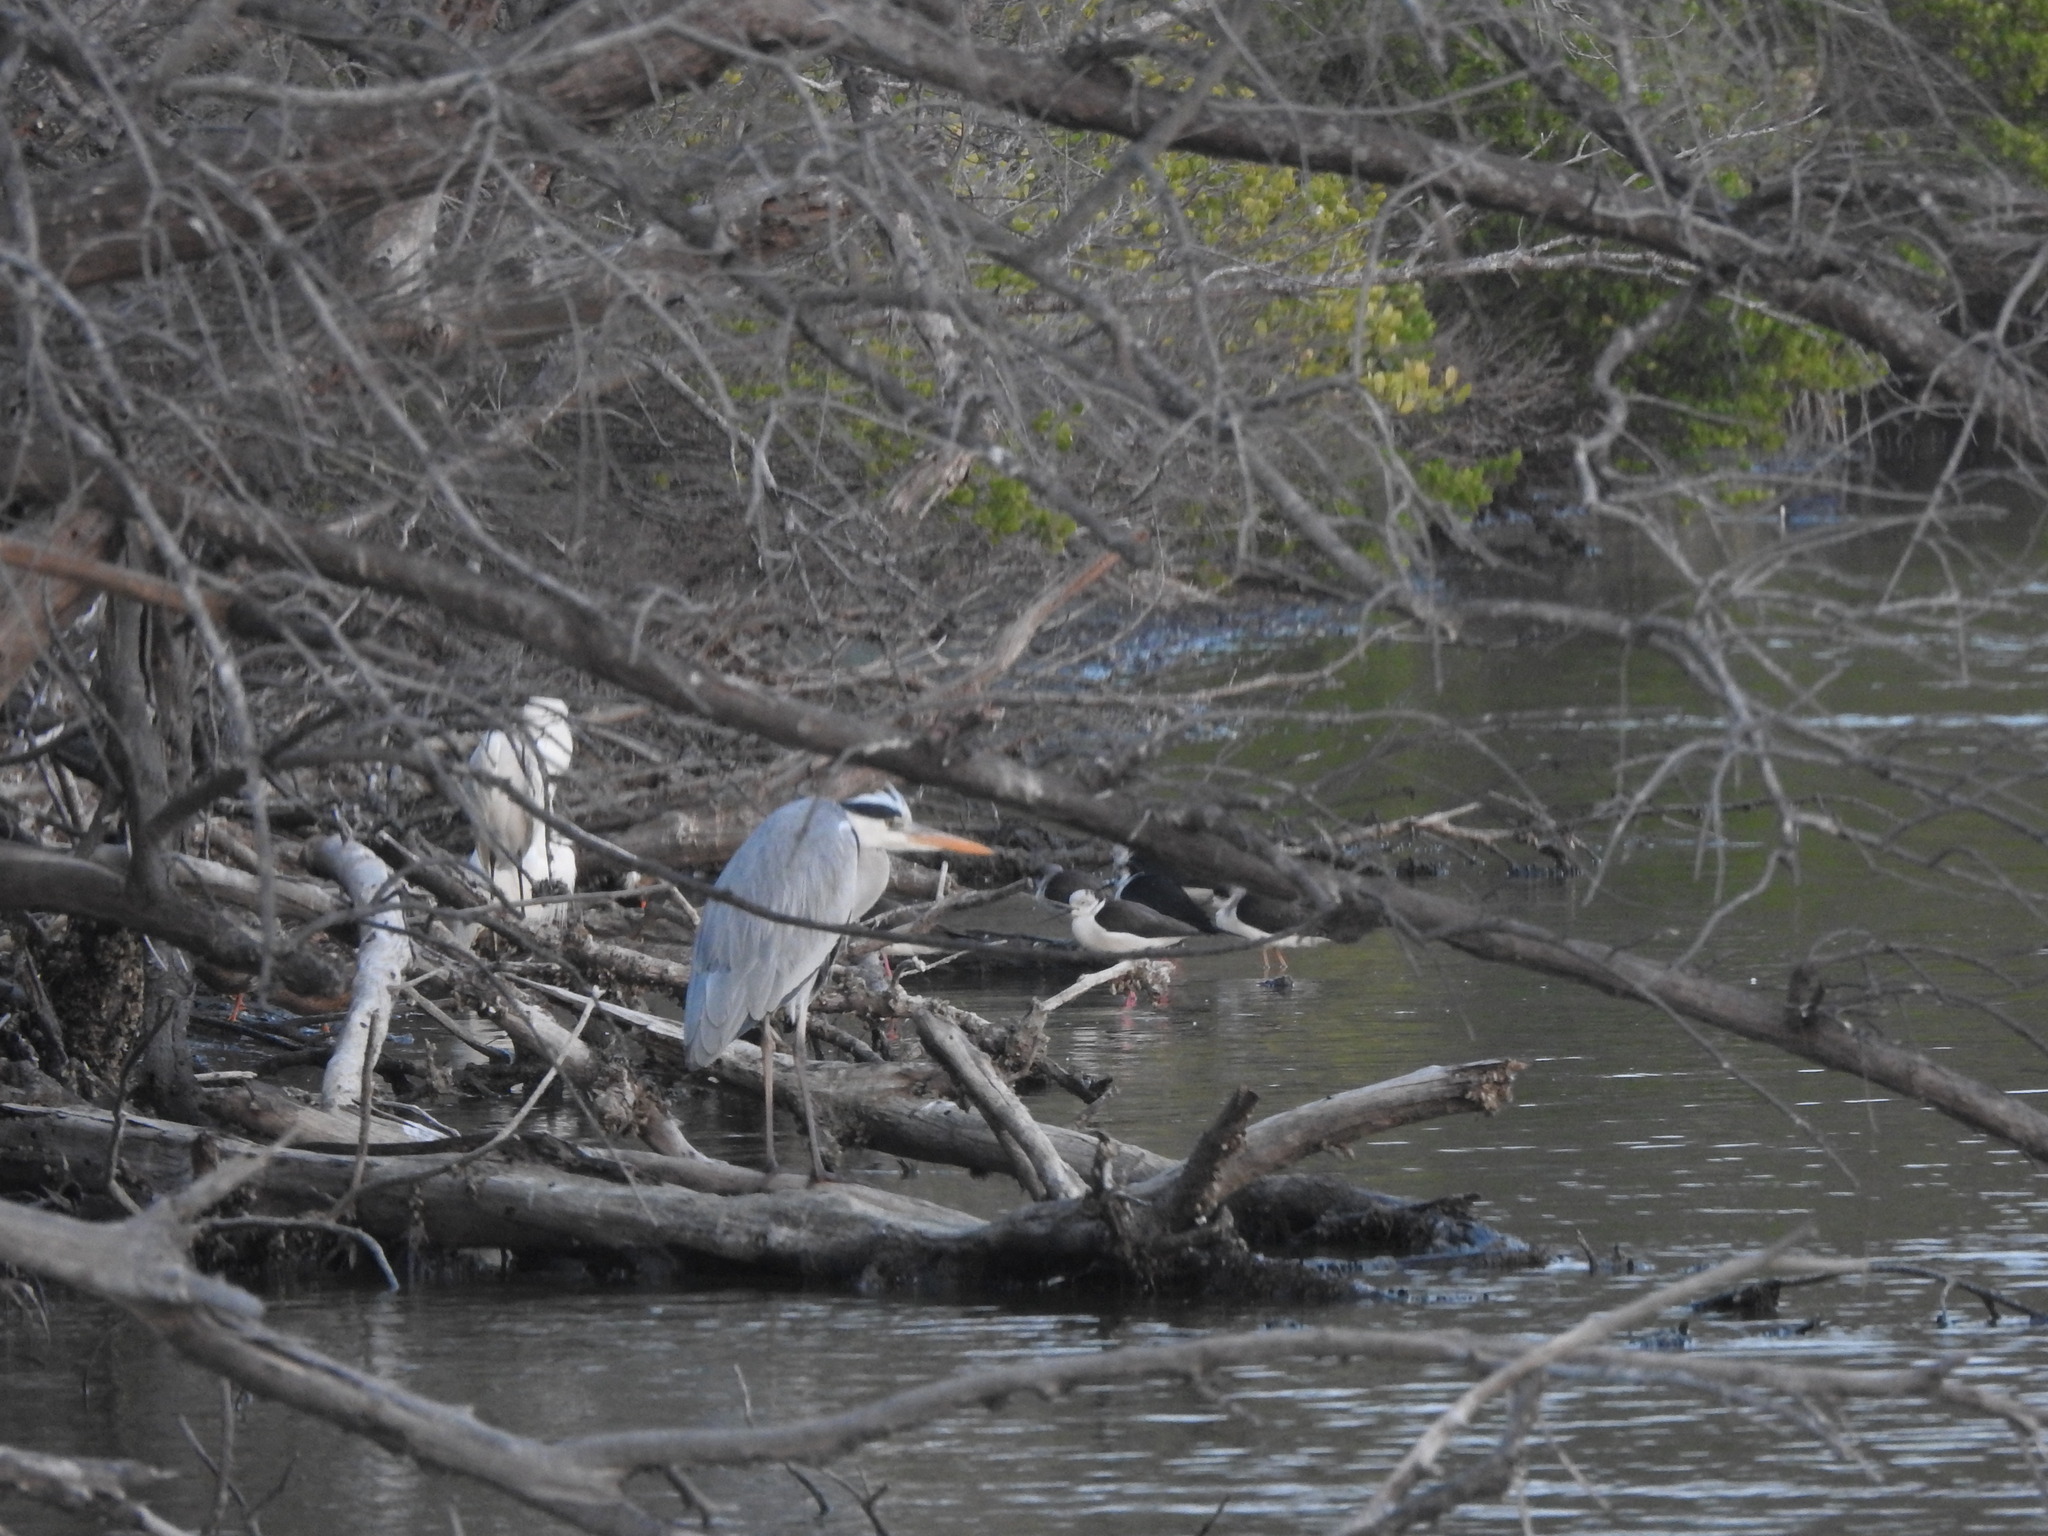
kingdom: Animalia
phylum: Chordata
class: Aves
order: Pelecaniformes
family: Ardeidae
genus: Ardea
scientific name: Ardea cinerea
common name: Grey heron
